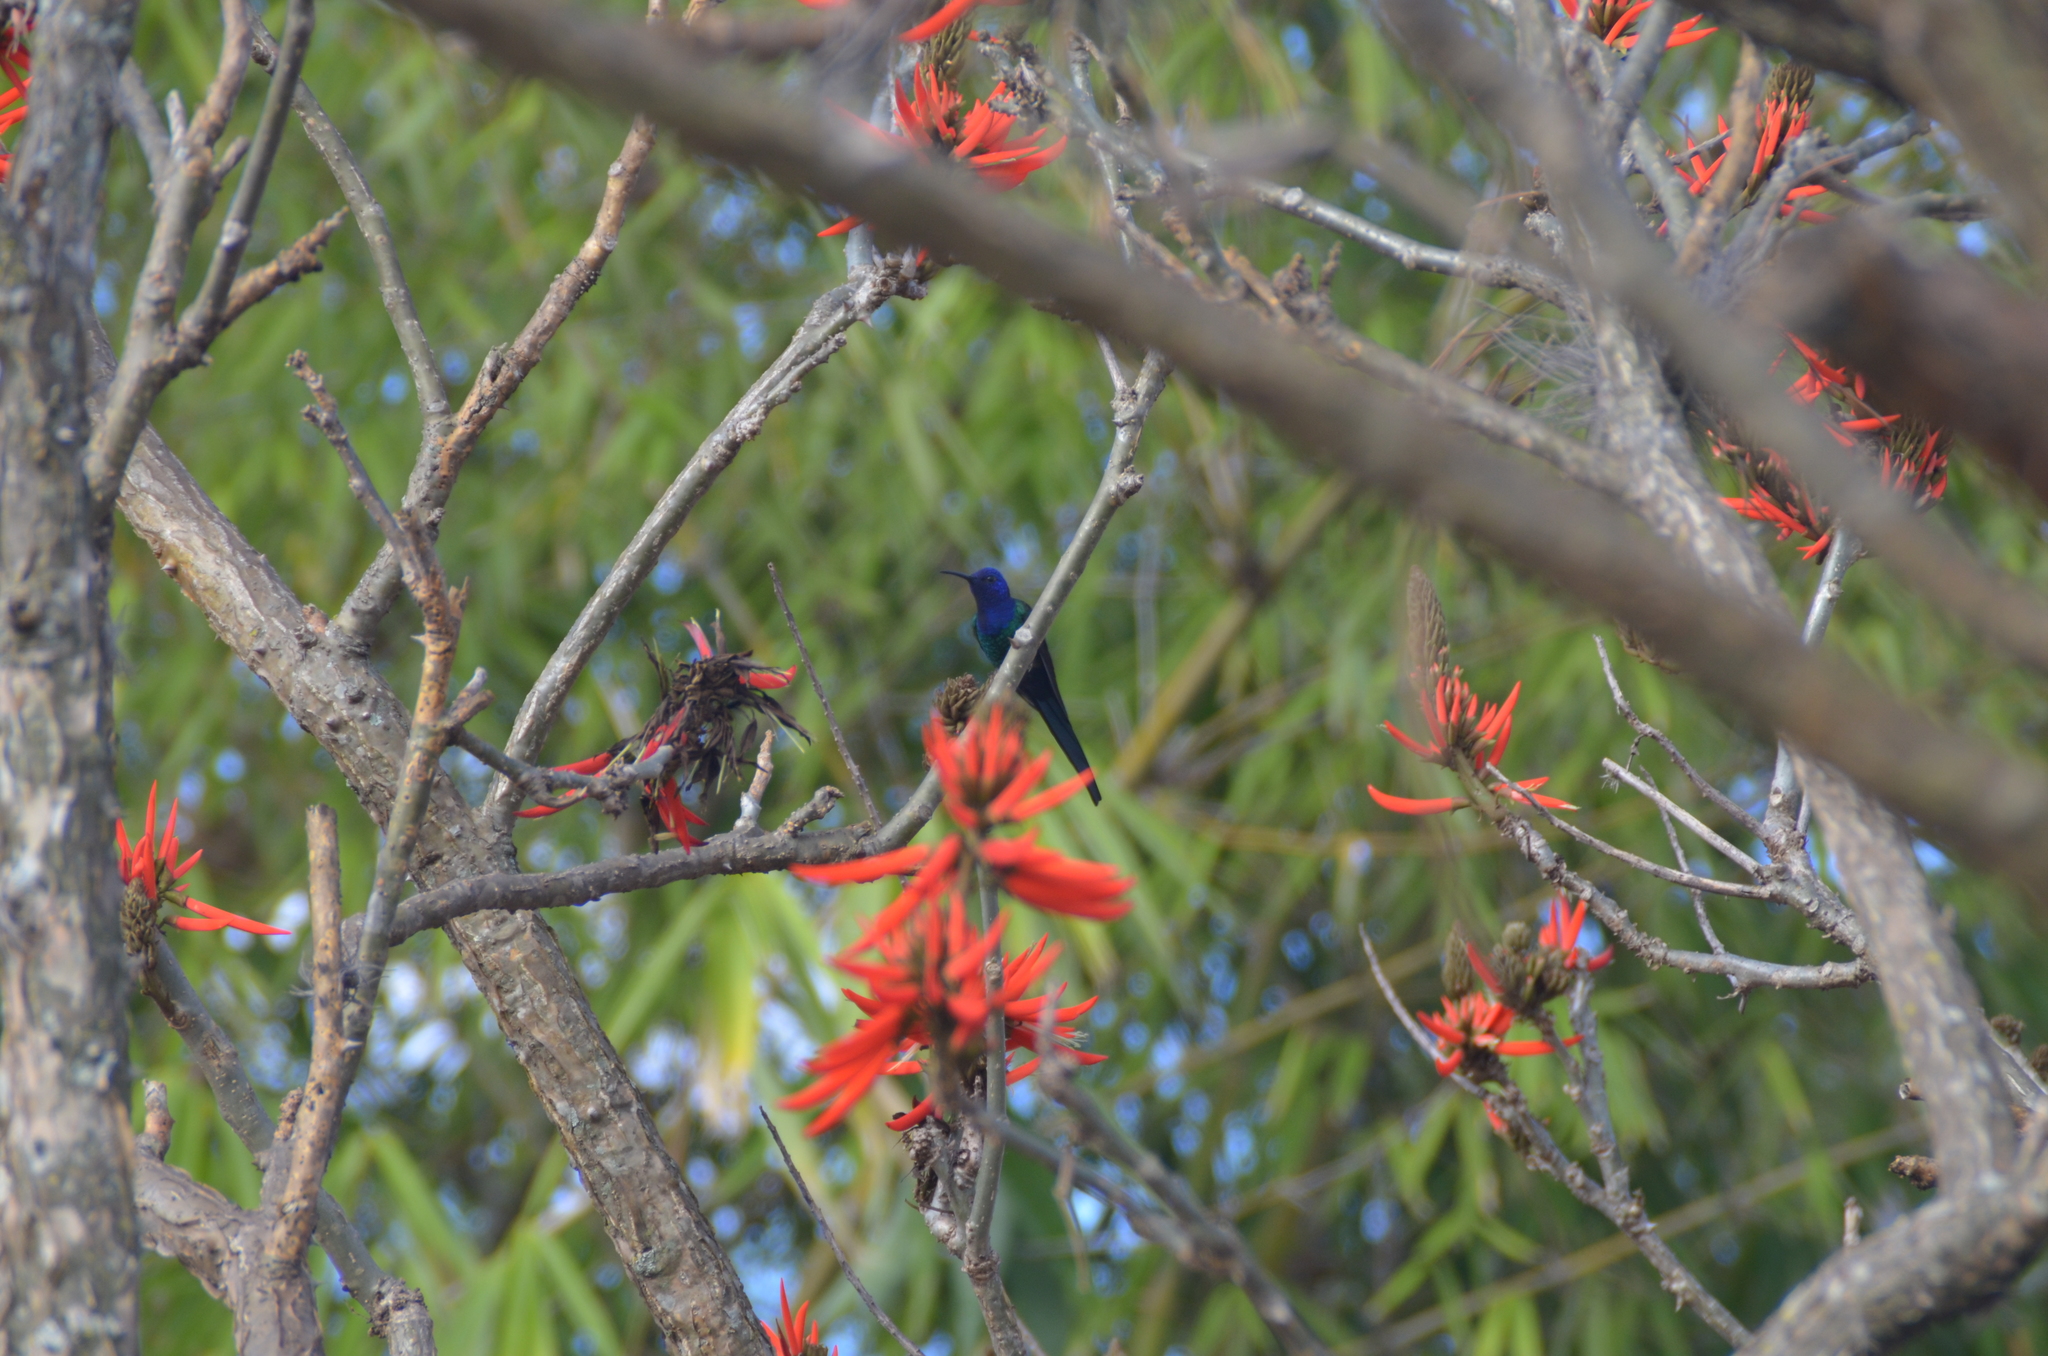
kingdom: Animalia
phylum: Chordata
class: Aves
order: Apodiformes
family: Trochilidae
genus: Eupetomena
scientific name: Eupetomena macroura
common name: Swallow-tailed hummingbird
